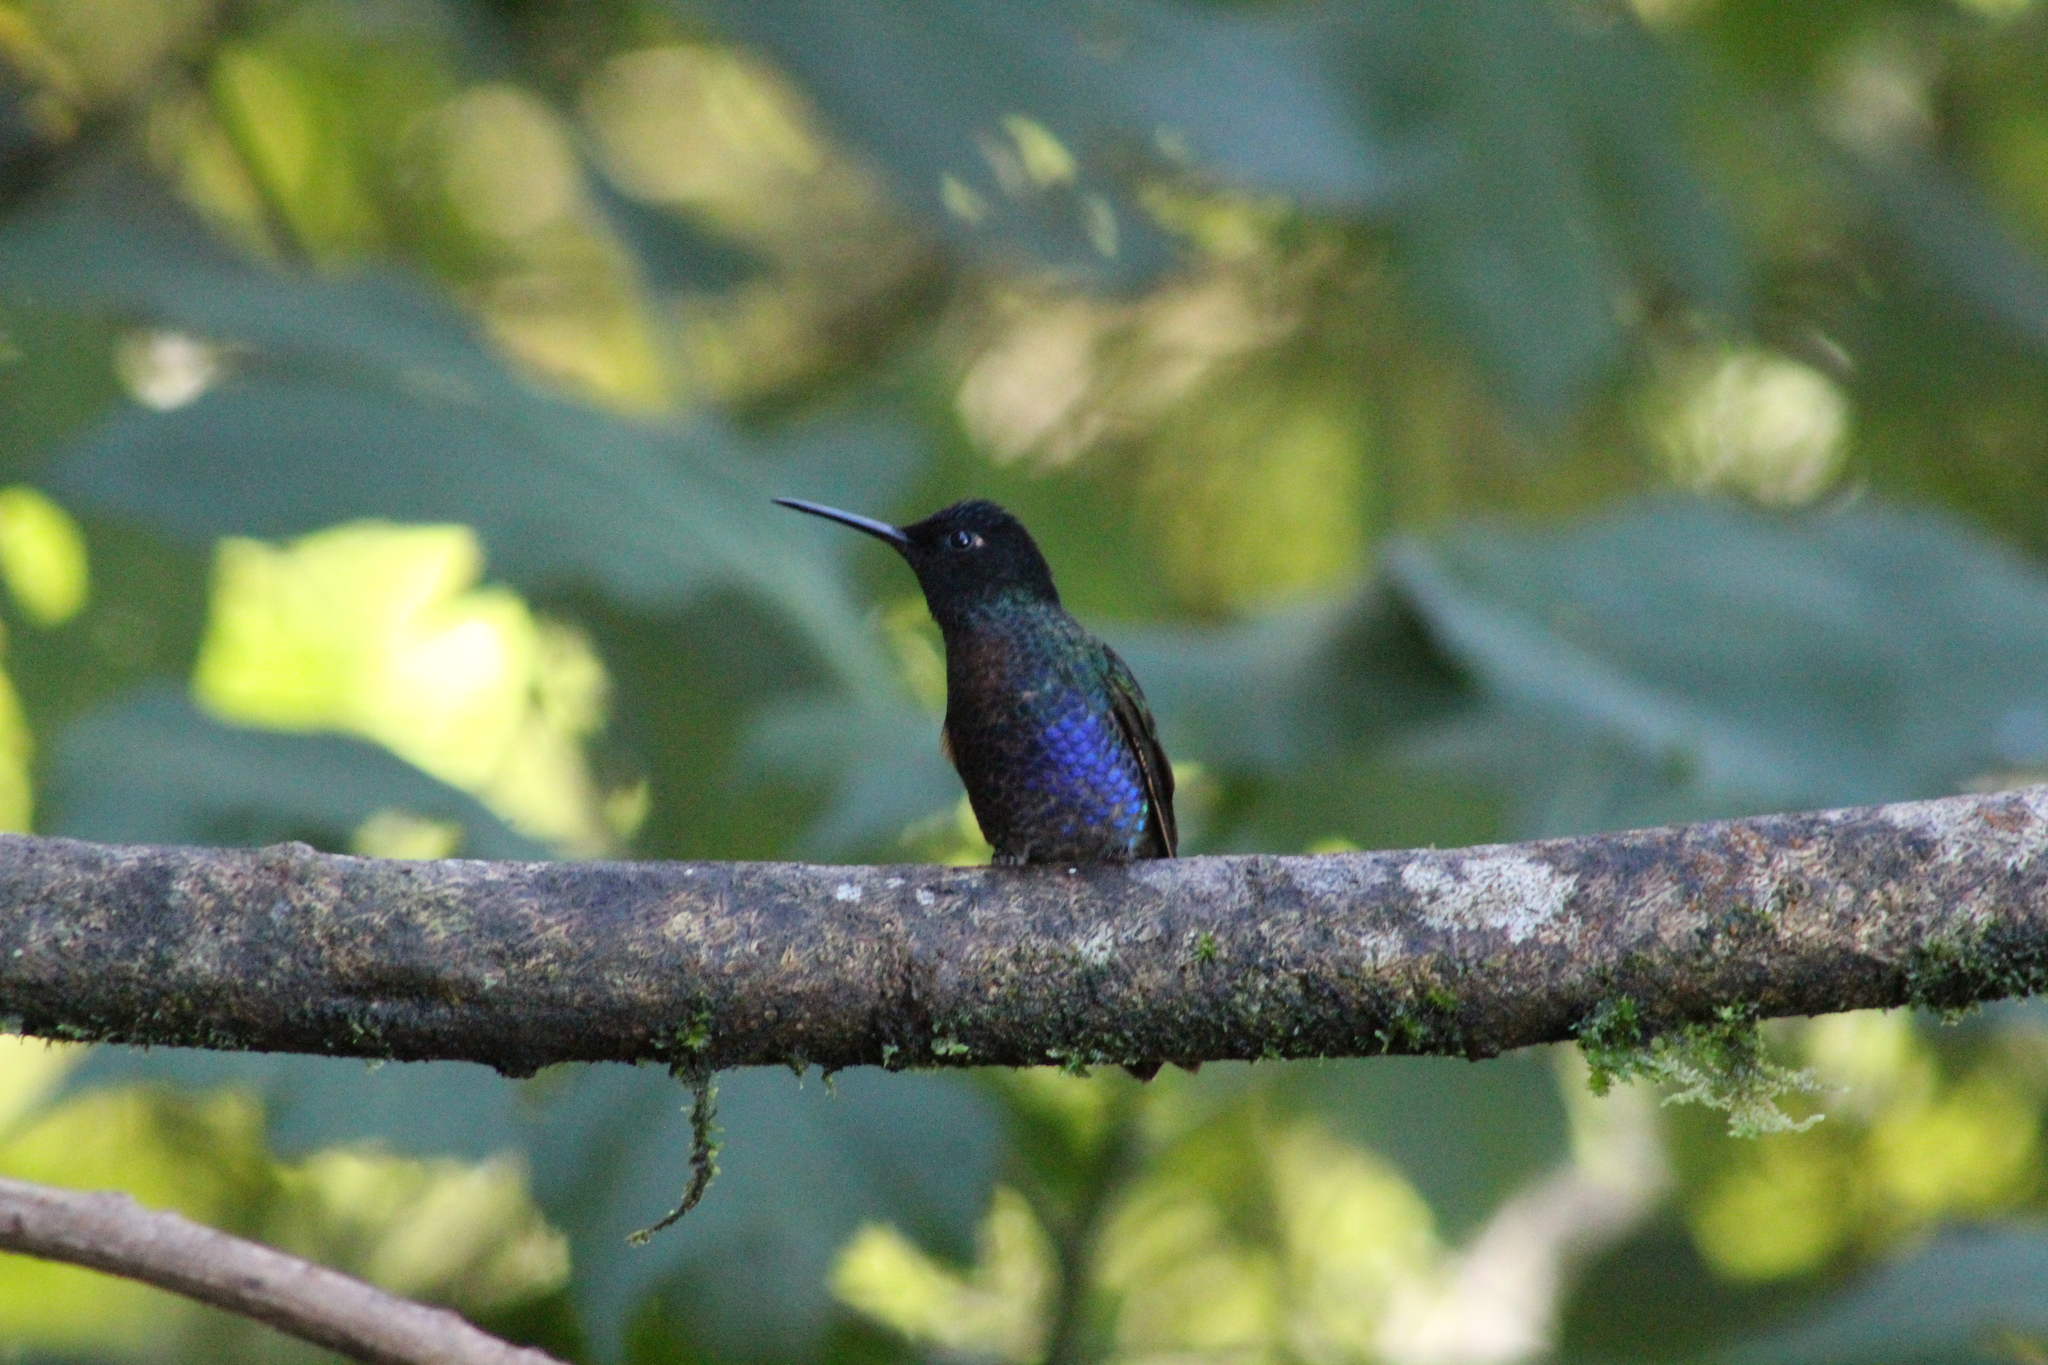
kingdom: Animalia
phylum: Chordata
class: Aves
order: Apodiformes
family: Trochilidae
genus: Boissonneaua
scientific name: Boissonneaua jardini
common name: Velvet-purple coronet
